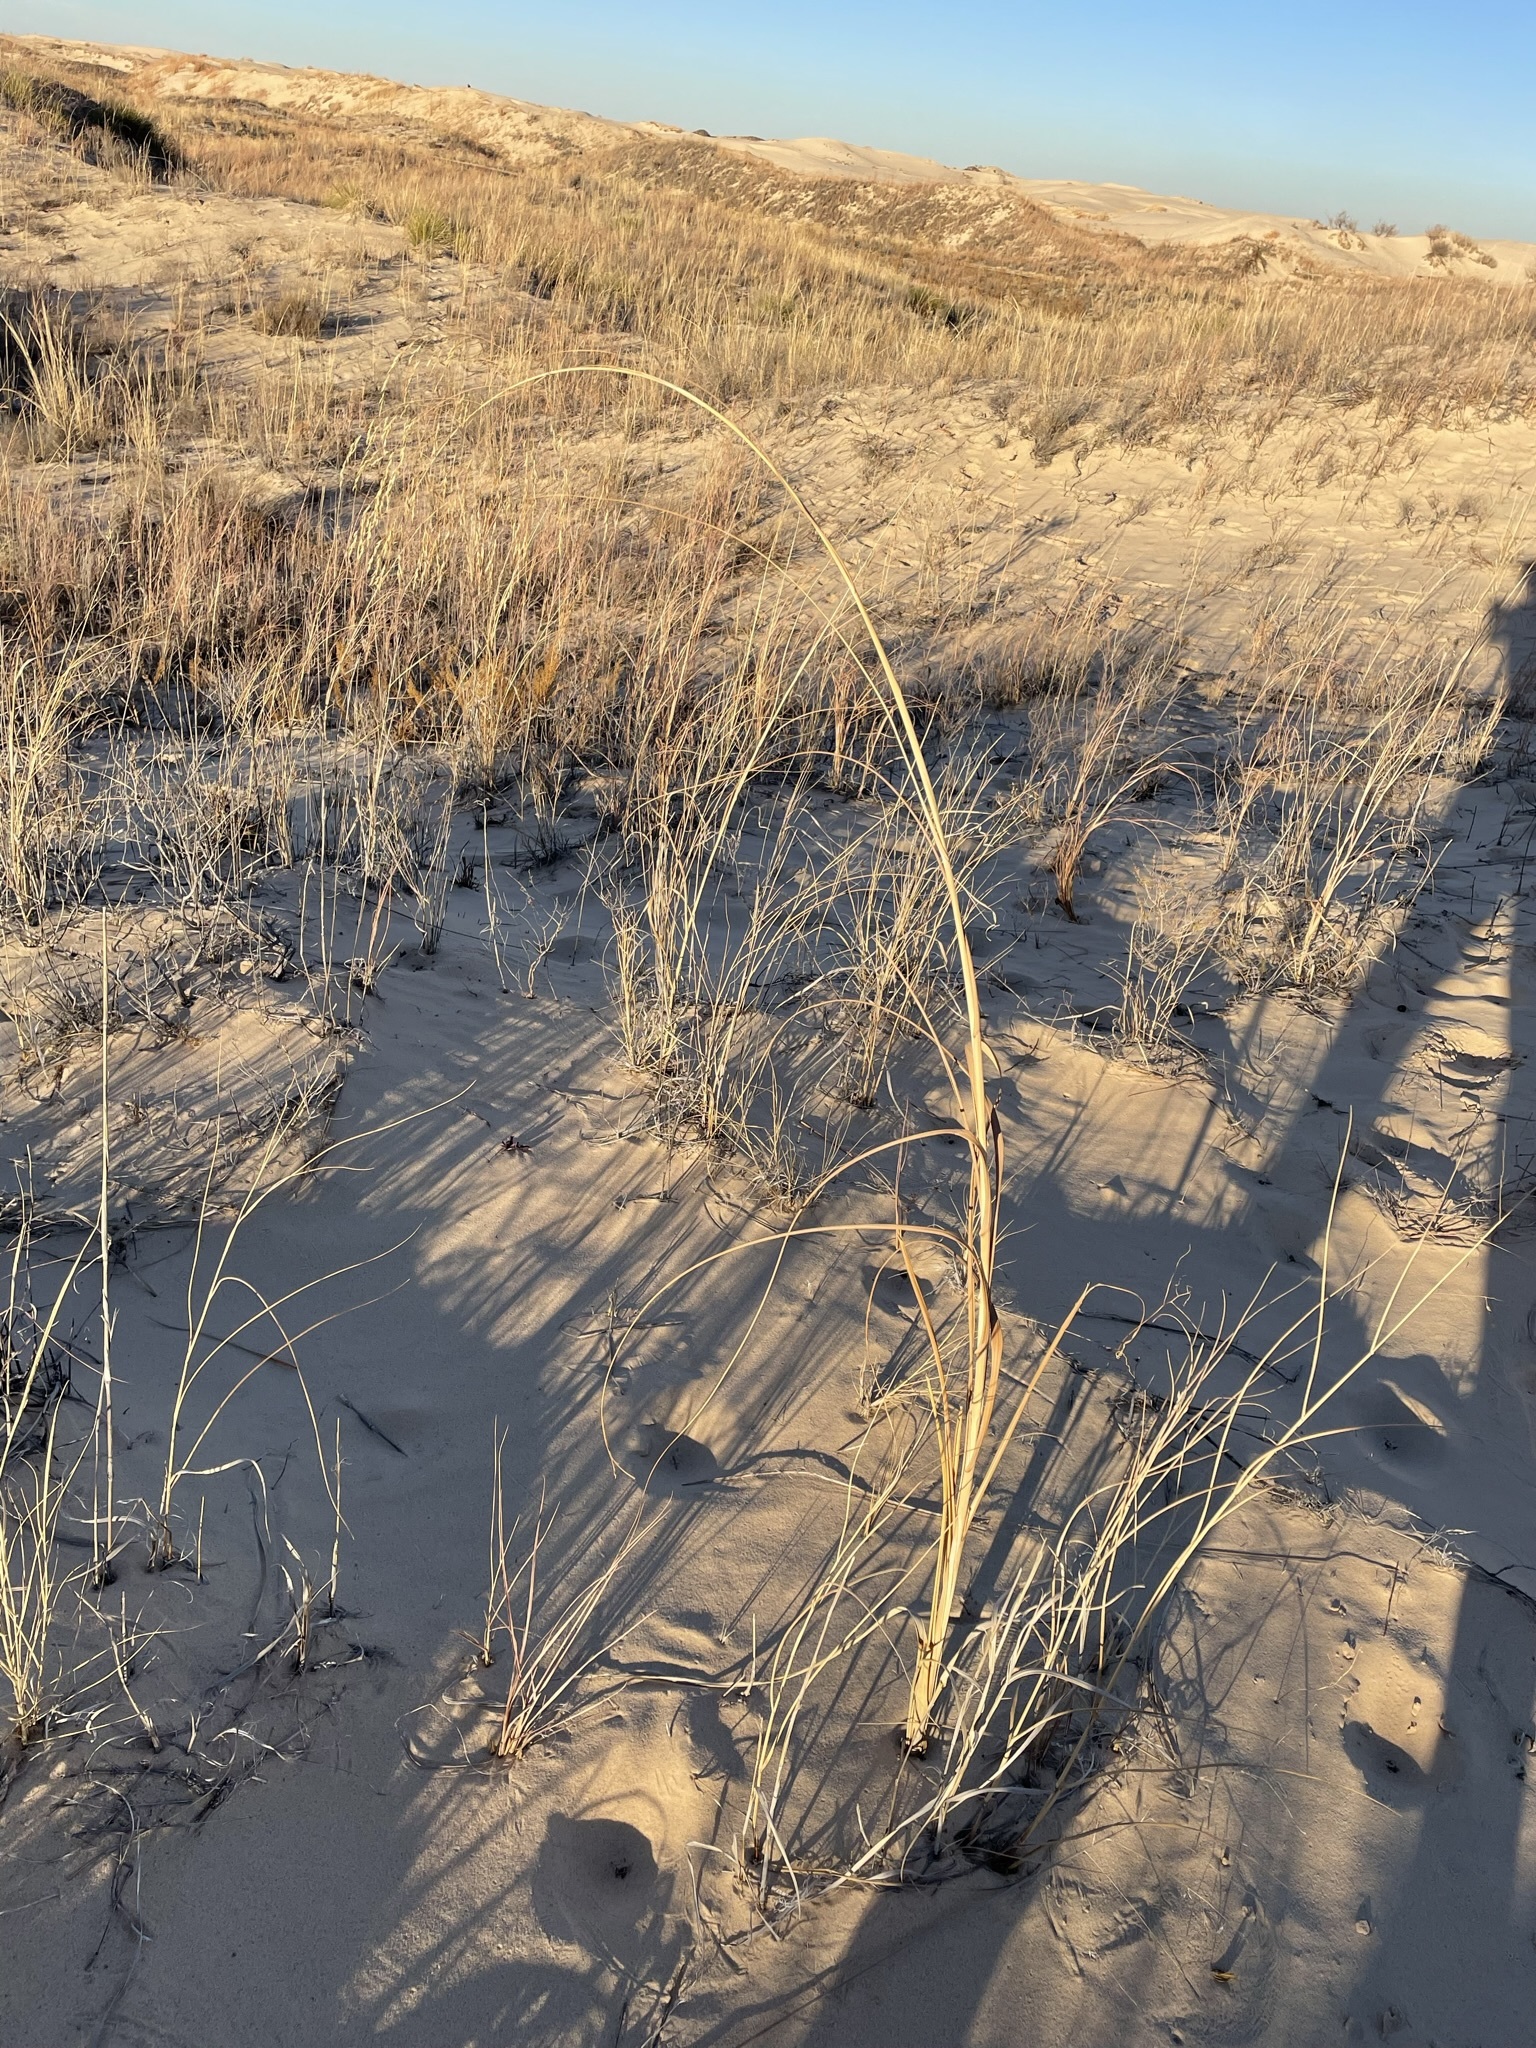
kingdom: Plantae
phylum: Tracheophyta
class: Liliopsida
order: Poales
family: Poaceae
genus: Sporobolus
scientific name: Sporobolus arenicola
